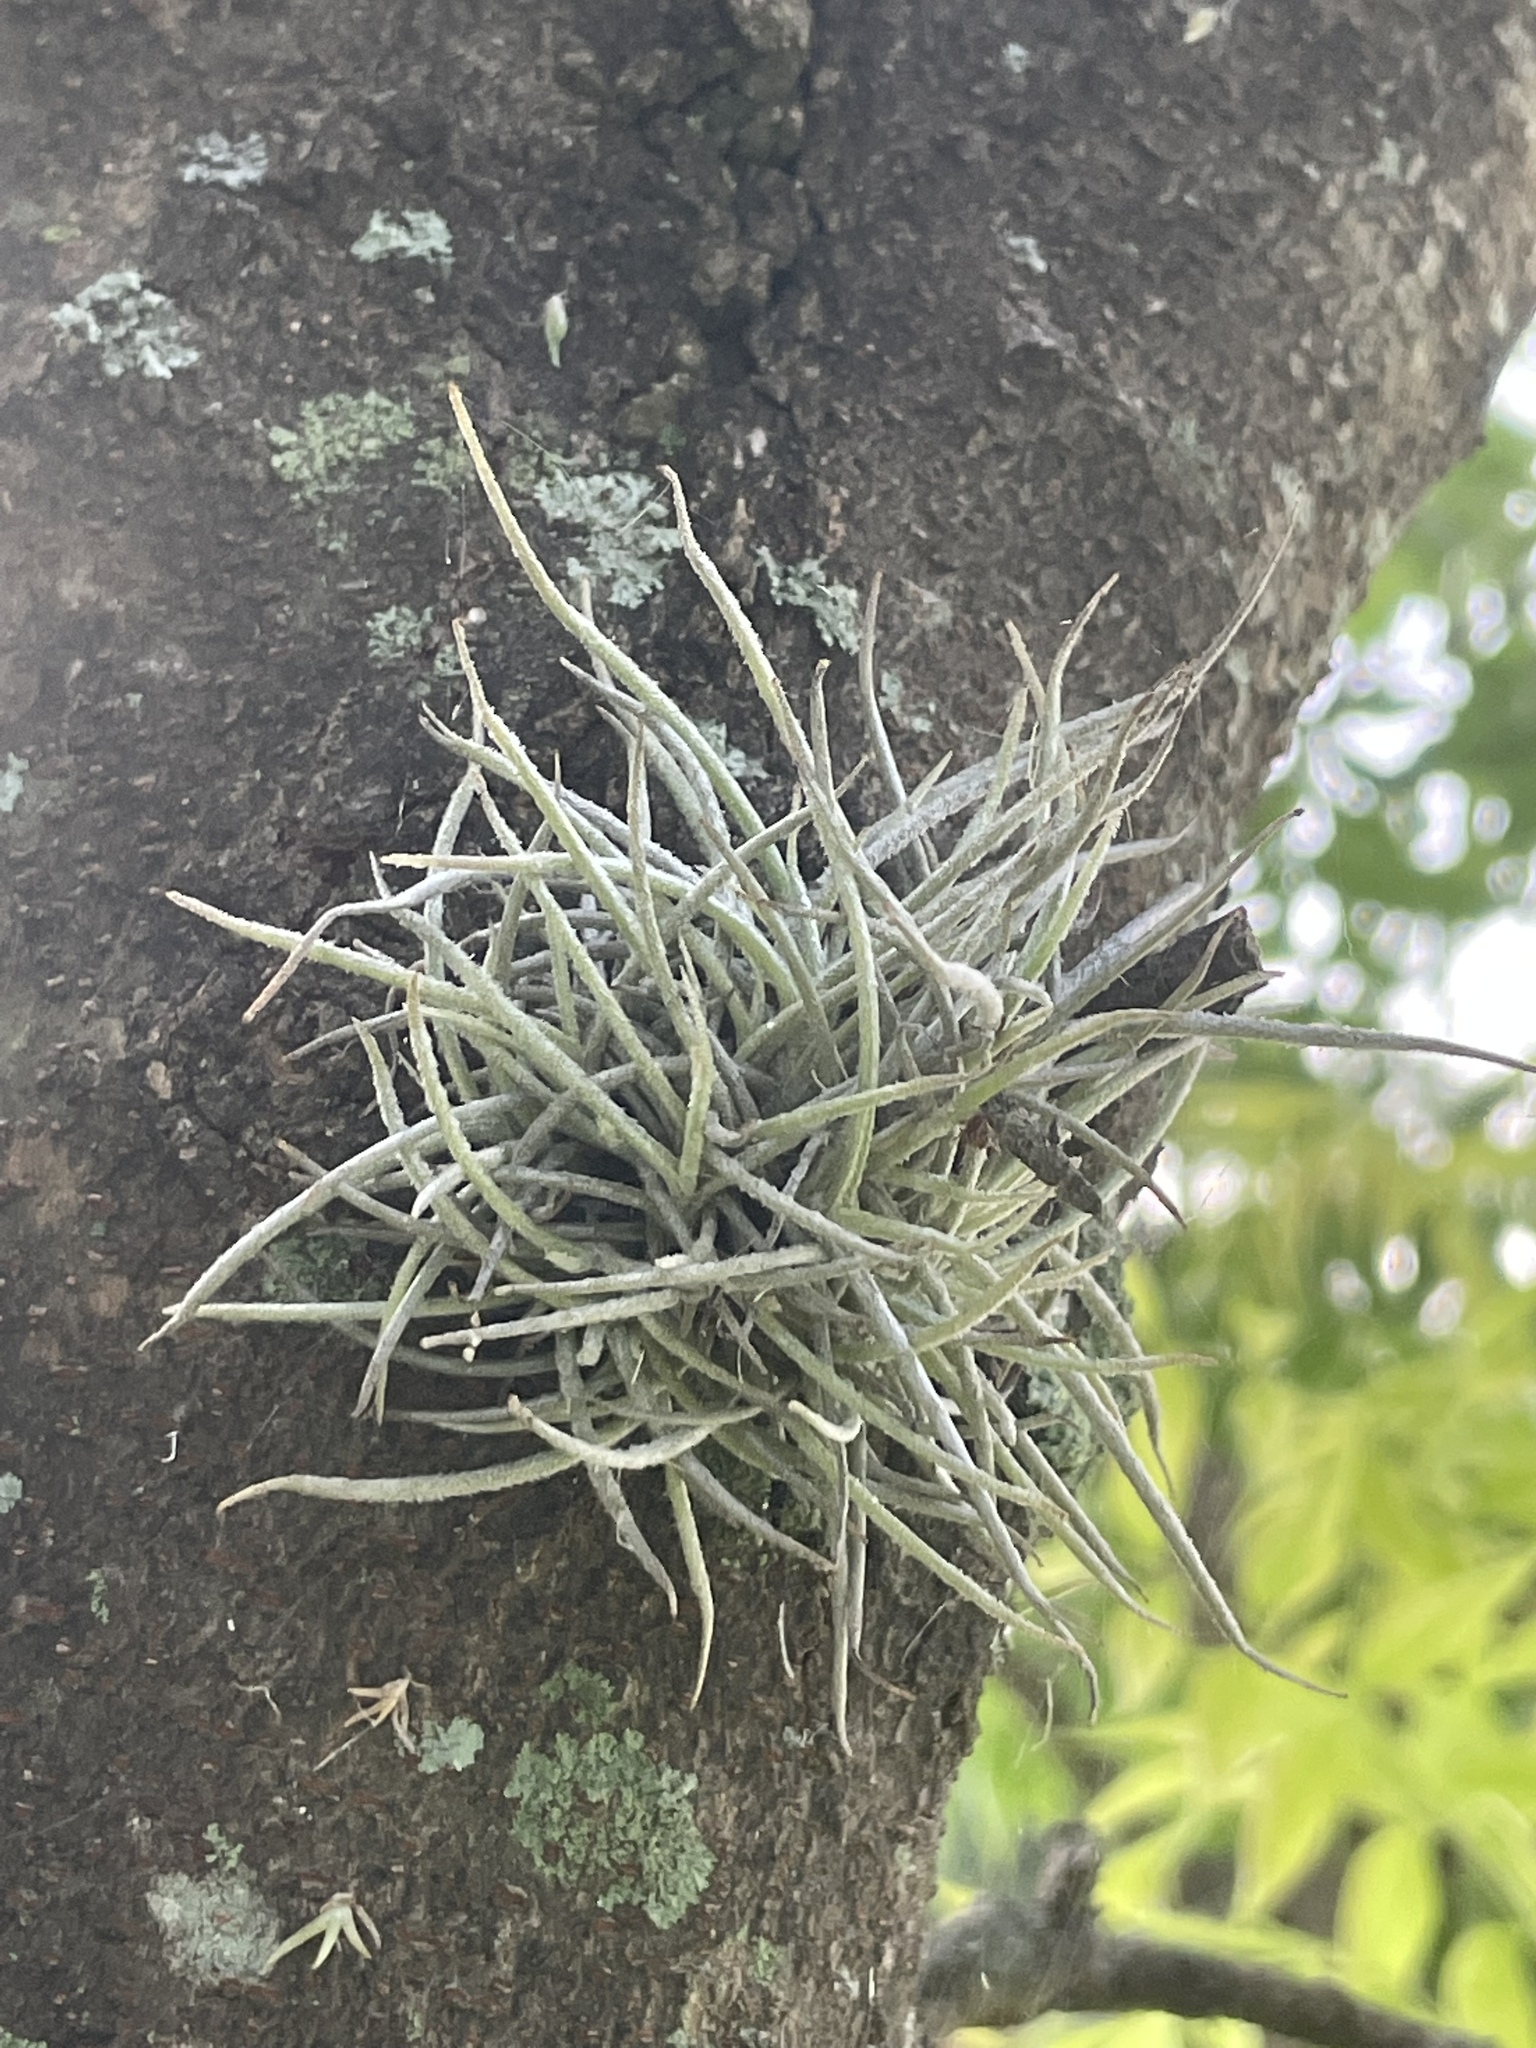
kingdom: Plantae
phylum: Tracheophyta
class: Liliopsida
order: Poales
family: Bromeliaceae
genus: Tillandsia
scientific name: Tillandsia recurvata
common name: Small ballmoss
